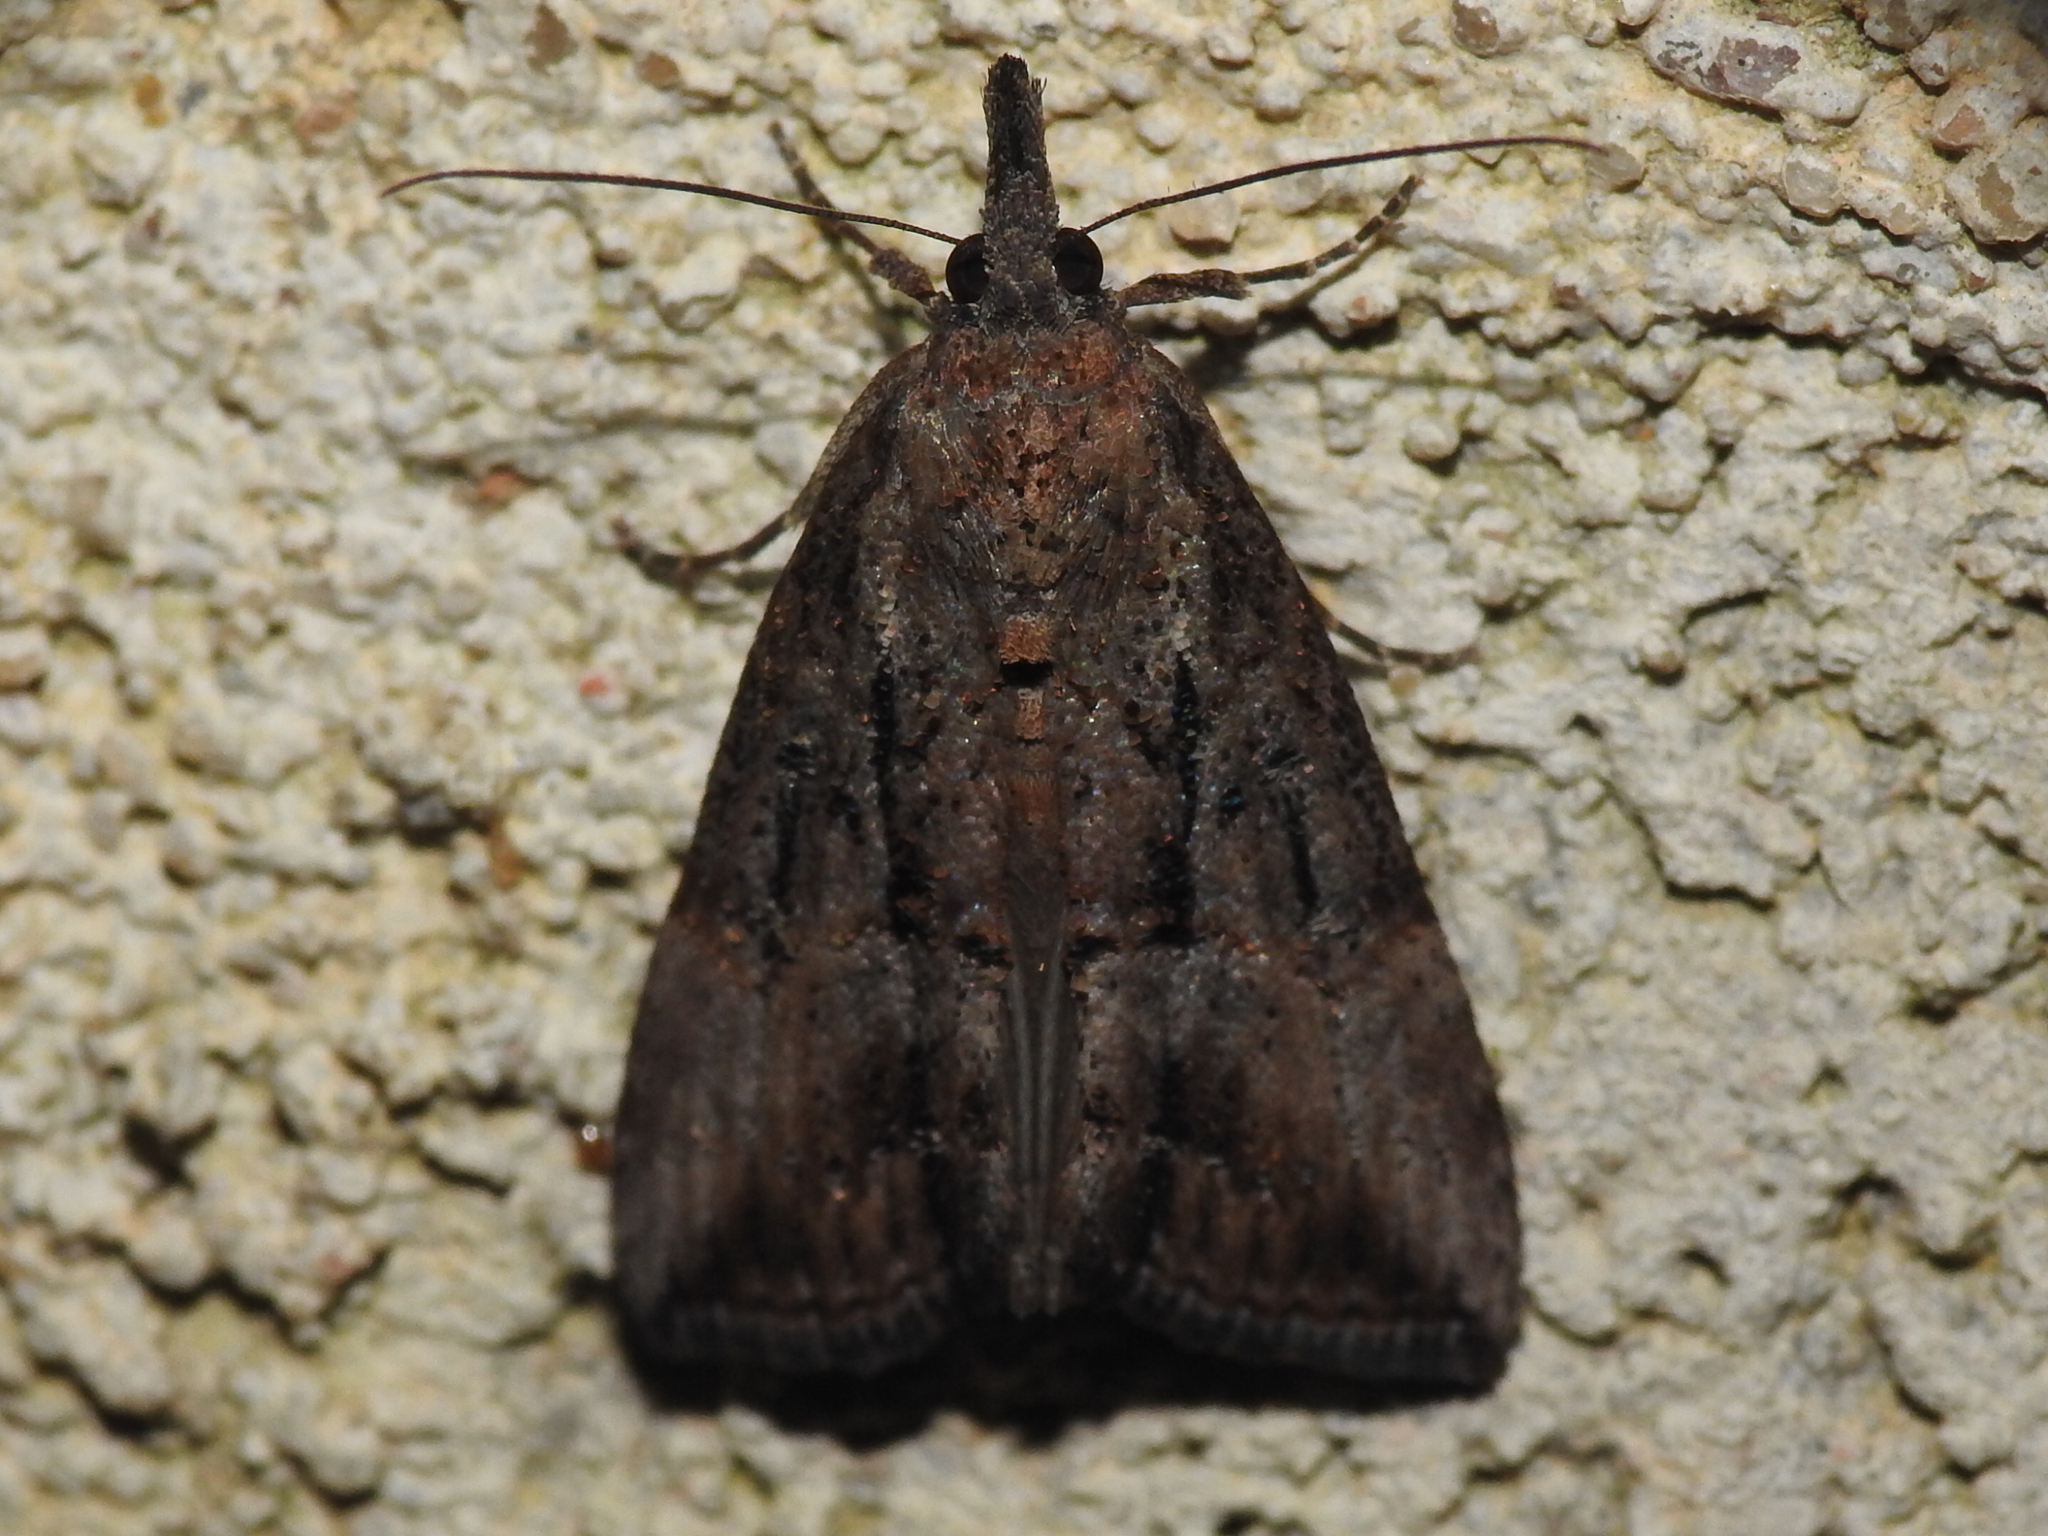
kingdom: Animalia
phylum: Arthropoda
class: Insecta
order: Lepidoptera
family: Erebidae
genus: Hypena
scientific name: Hypena scabra
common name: Green cloverworm
